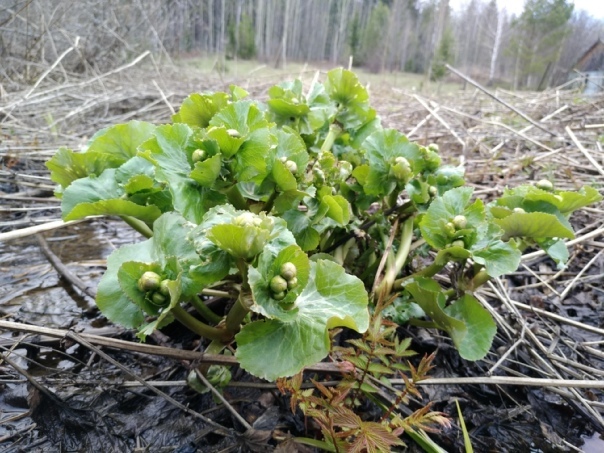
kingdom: Plantae
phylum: Tracheophyta
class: Magnoliopsida
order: Ranunculales
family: Ranunculaceae
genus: Caltha
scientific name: Caltha palustris
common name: Marsh marigold
